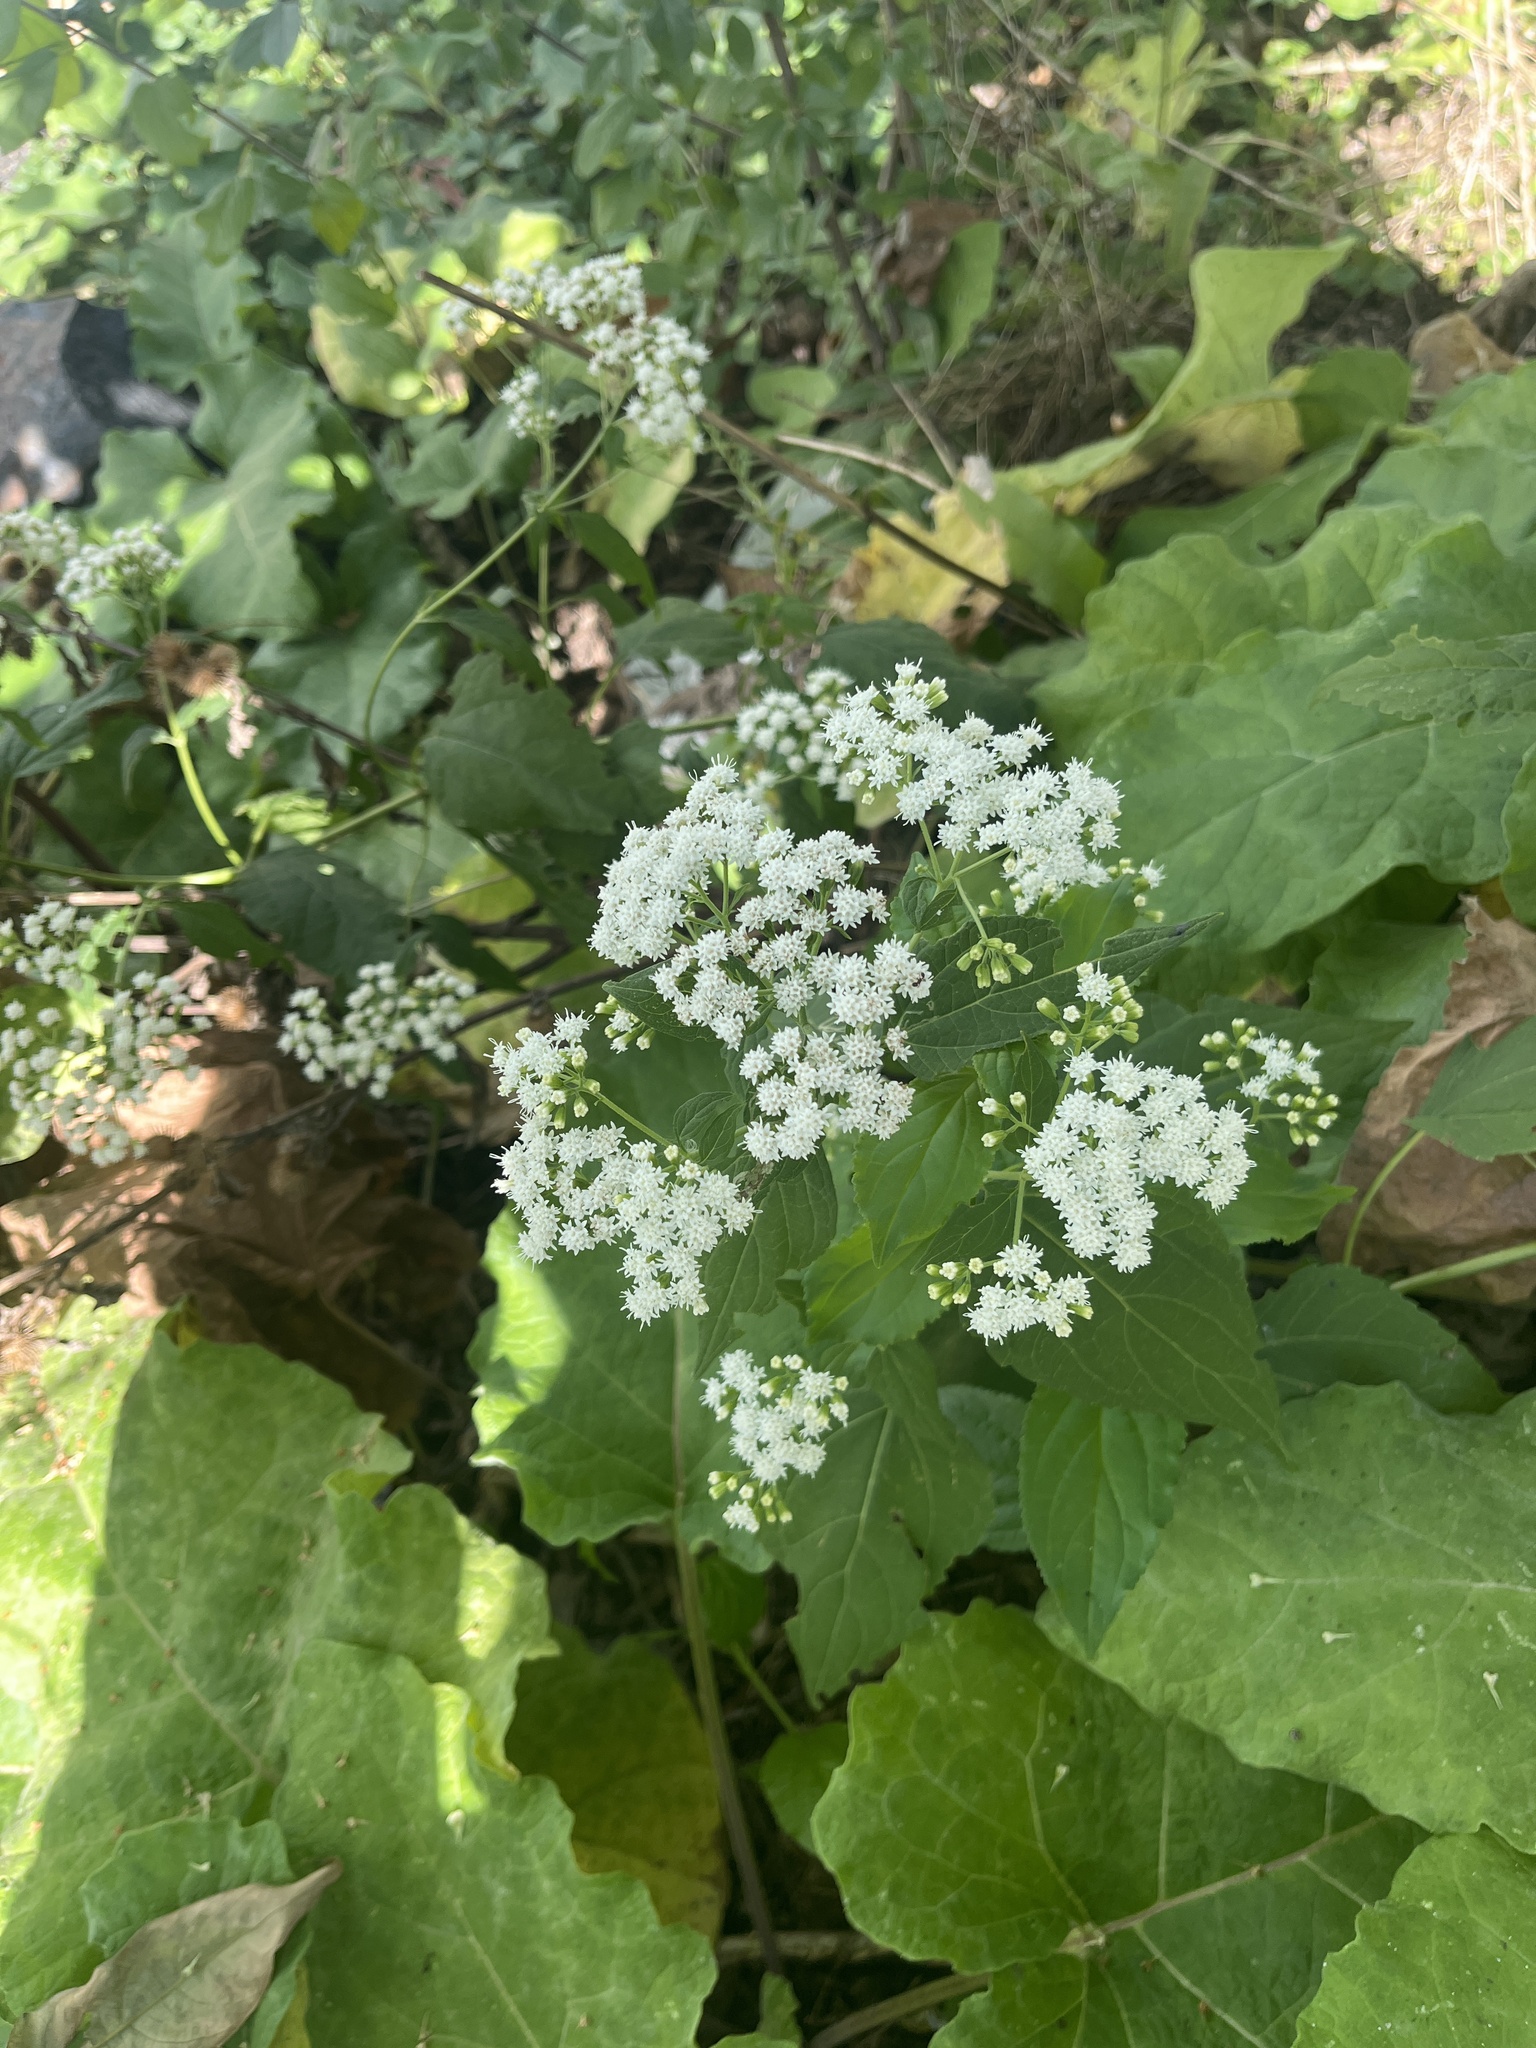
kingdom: Plantae
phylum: Tracheophyta
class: Magnoliopsida
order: Asterales
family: Asteraceae
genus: Ageratina
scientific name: Ageratina altissima
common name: White snakeroot
